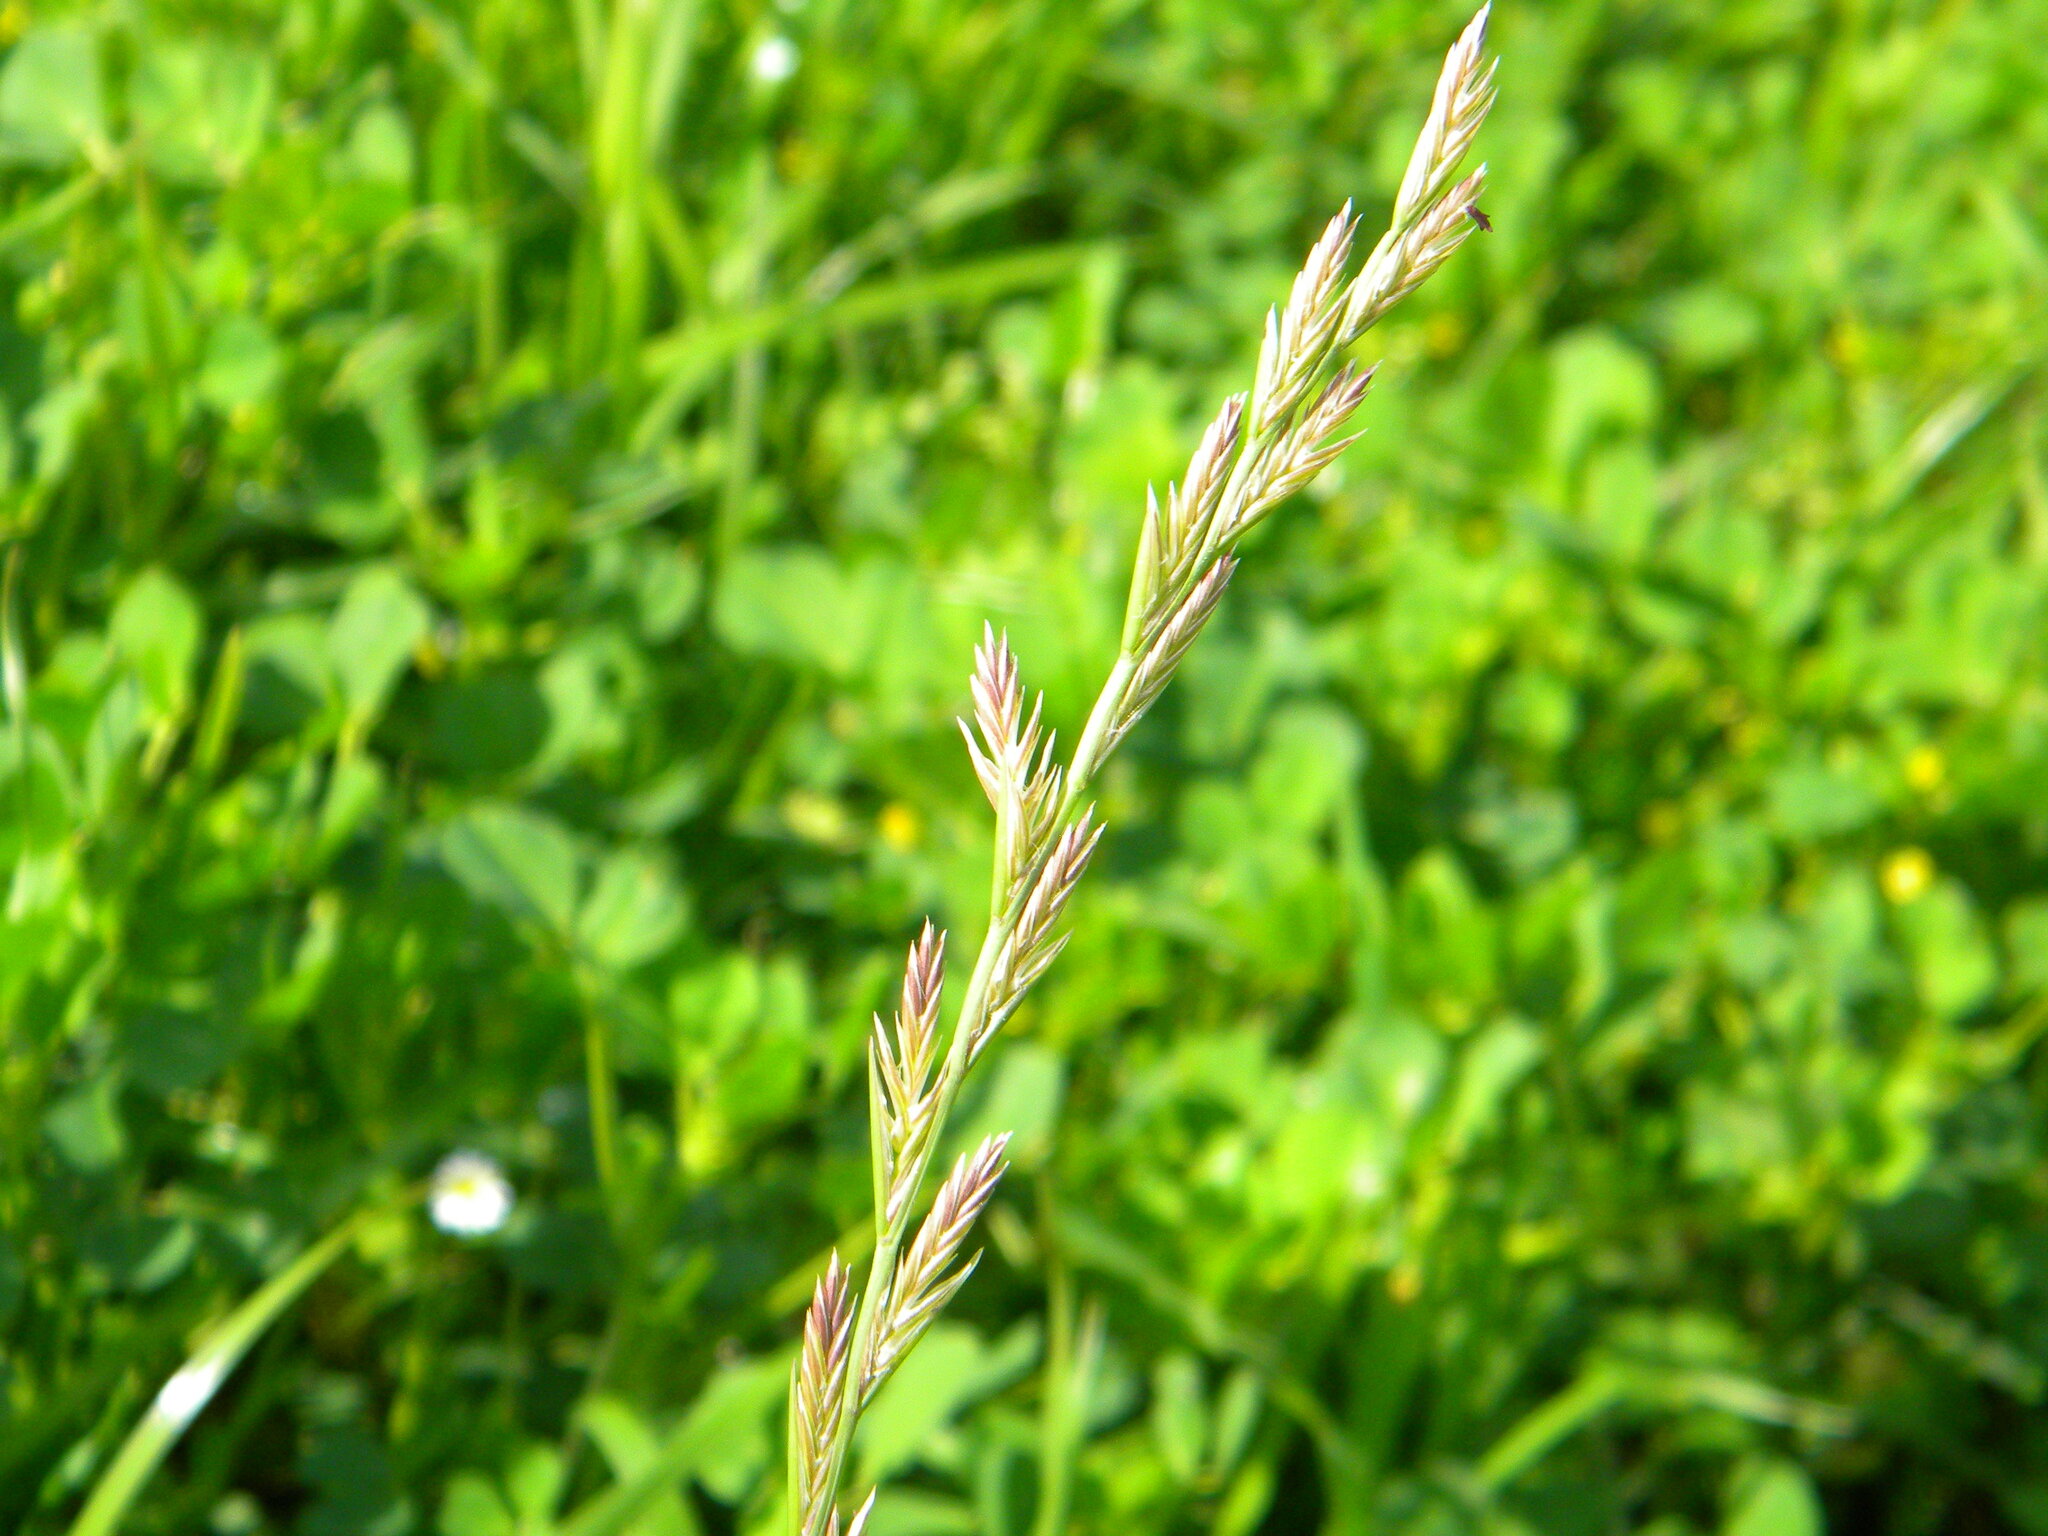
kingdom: Plantae
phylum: Tracheophyta
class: Liliopsida
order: Poales
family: Poaceae
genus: Lolium
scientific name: Lolium multiflorum
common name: Annual ryegrass
